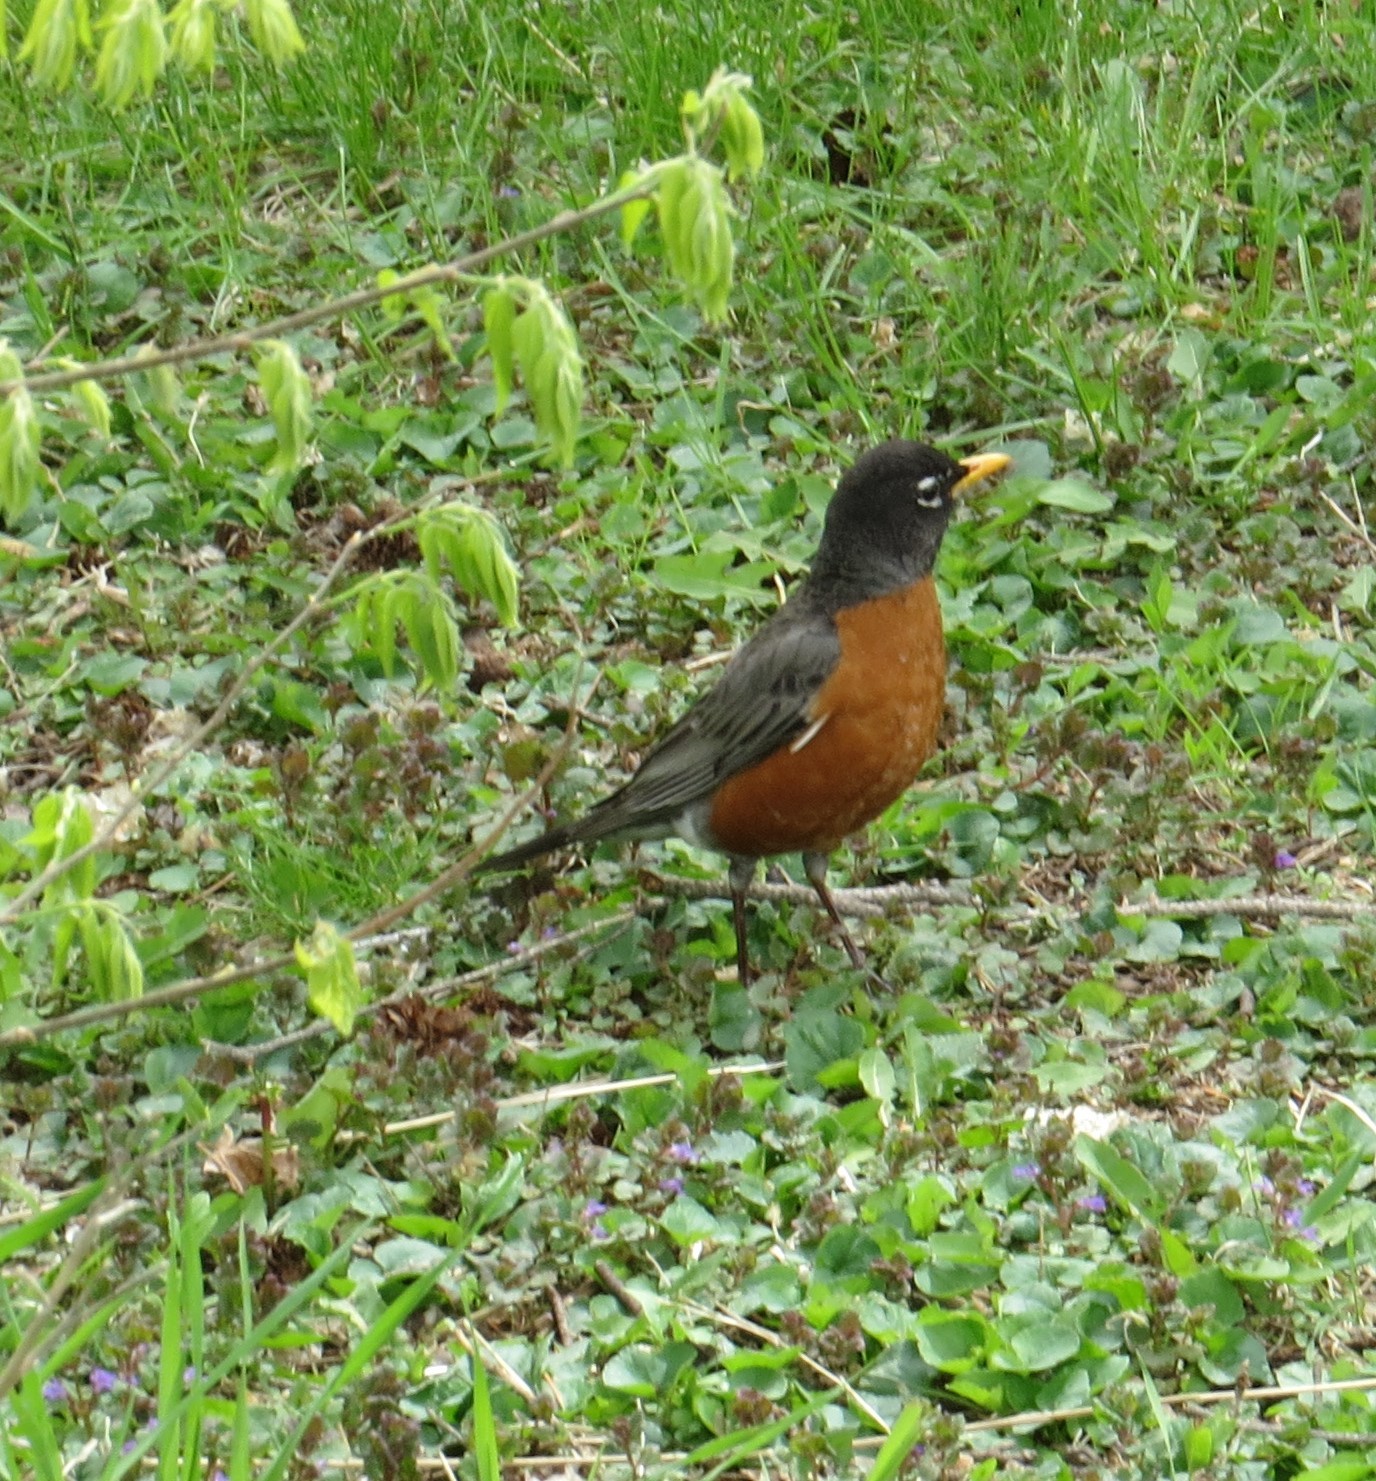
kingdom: Animalia
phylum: Chordata
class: Aves
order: Passeriformes
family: Turdidae
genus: Turdus
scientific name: Turdus migratorius
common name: American robin
